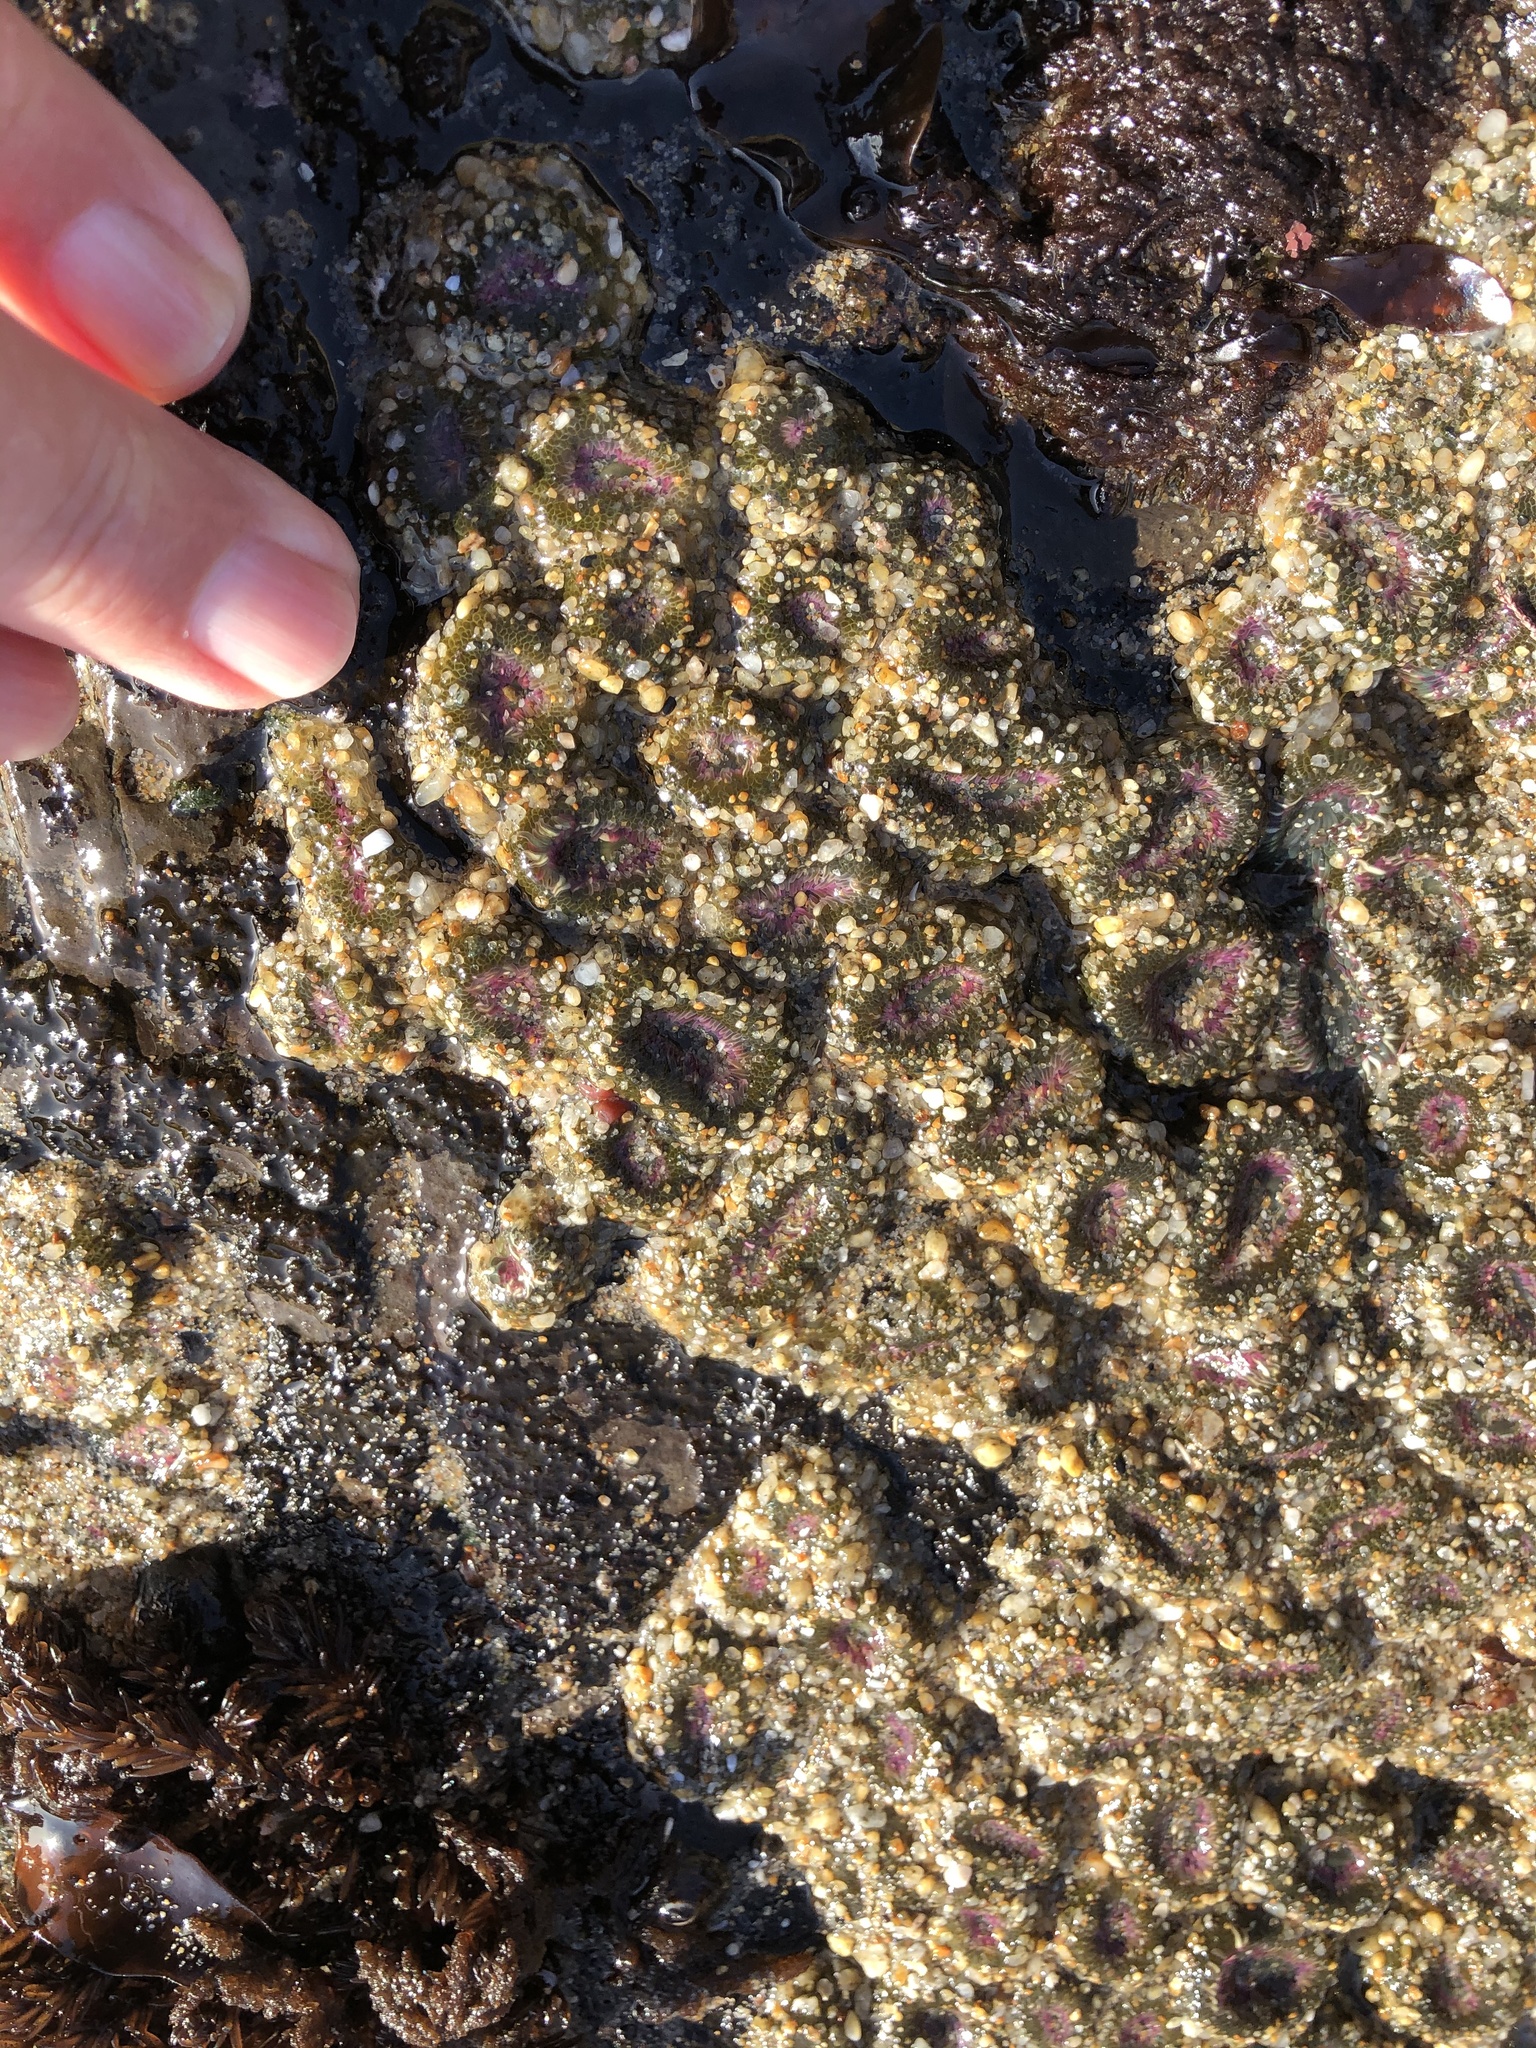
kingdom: Animalia
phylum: Cnidaria
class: Anthozoa
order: Actiniaria
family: Actiniidae
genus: Anthopleura
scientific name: Anthopleura elegantissima
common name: Clonal anemone
